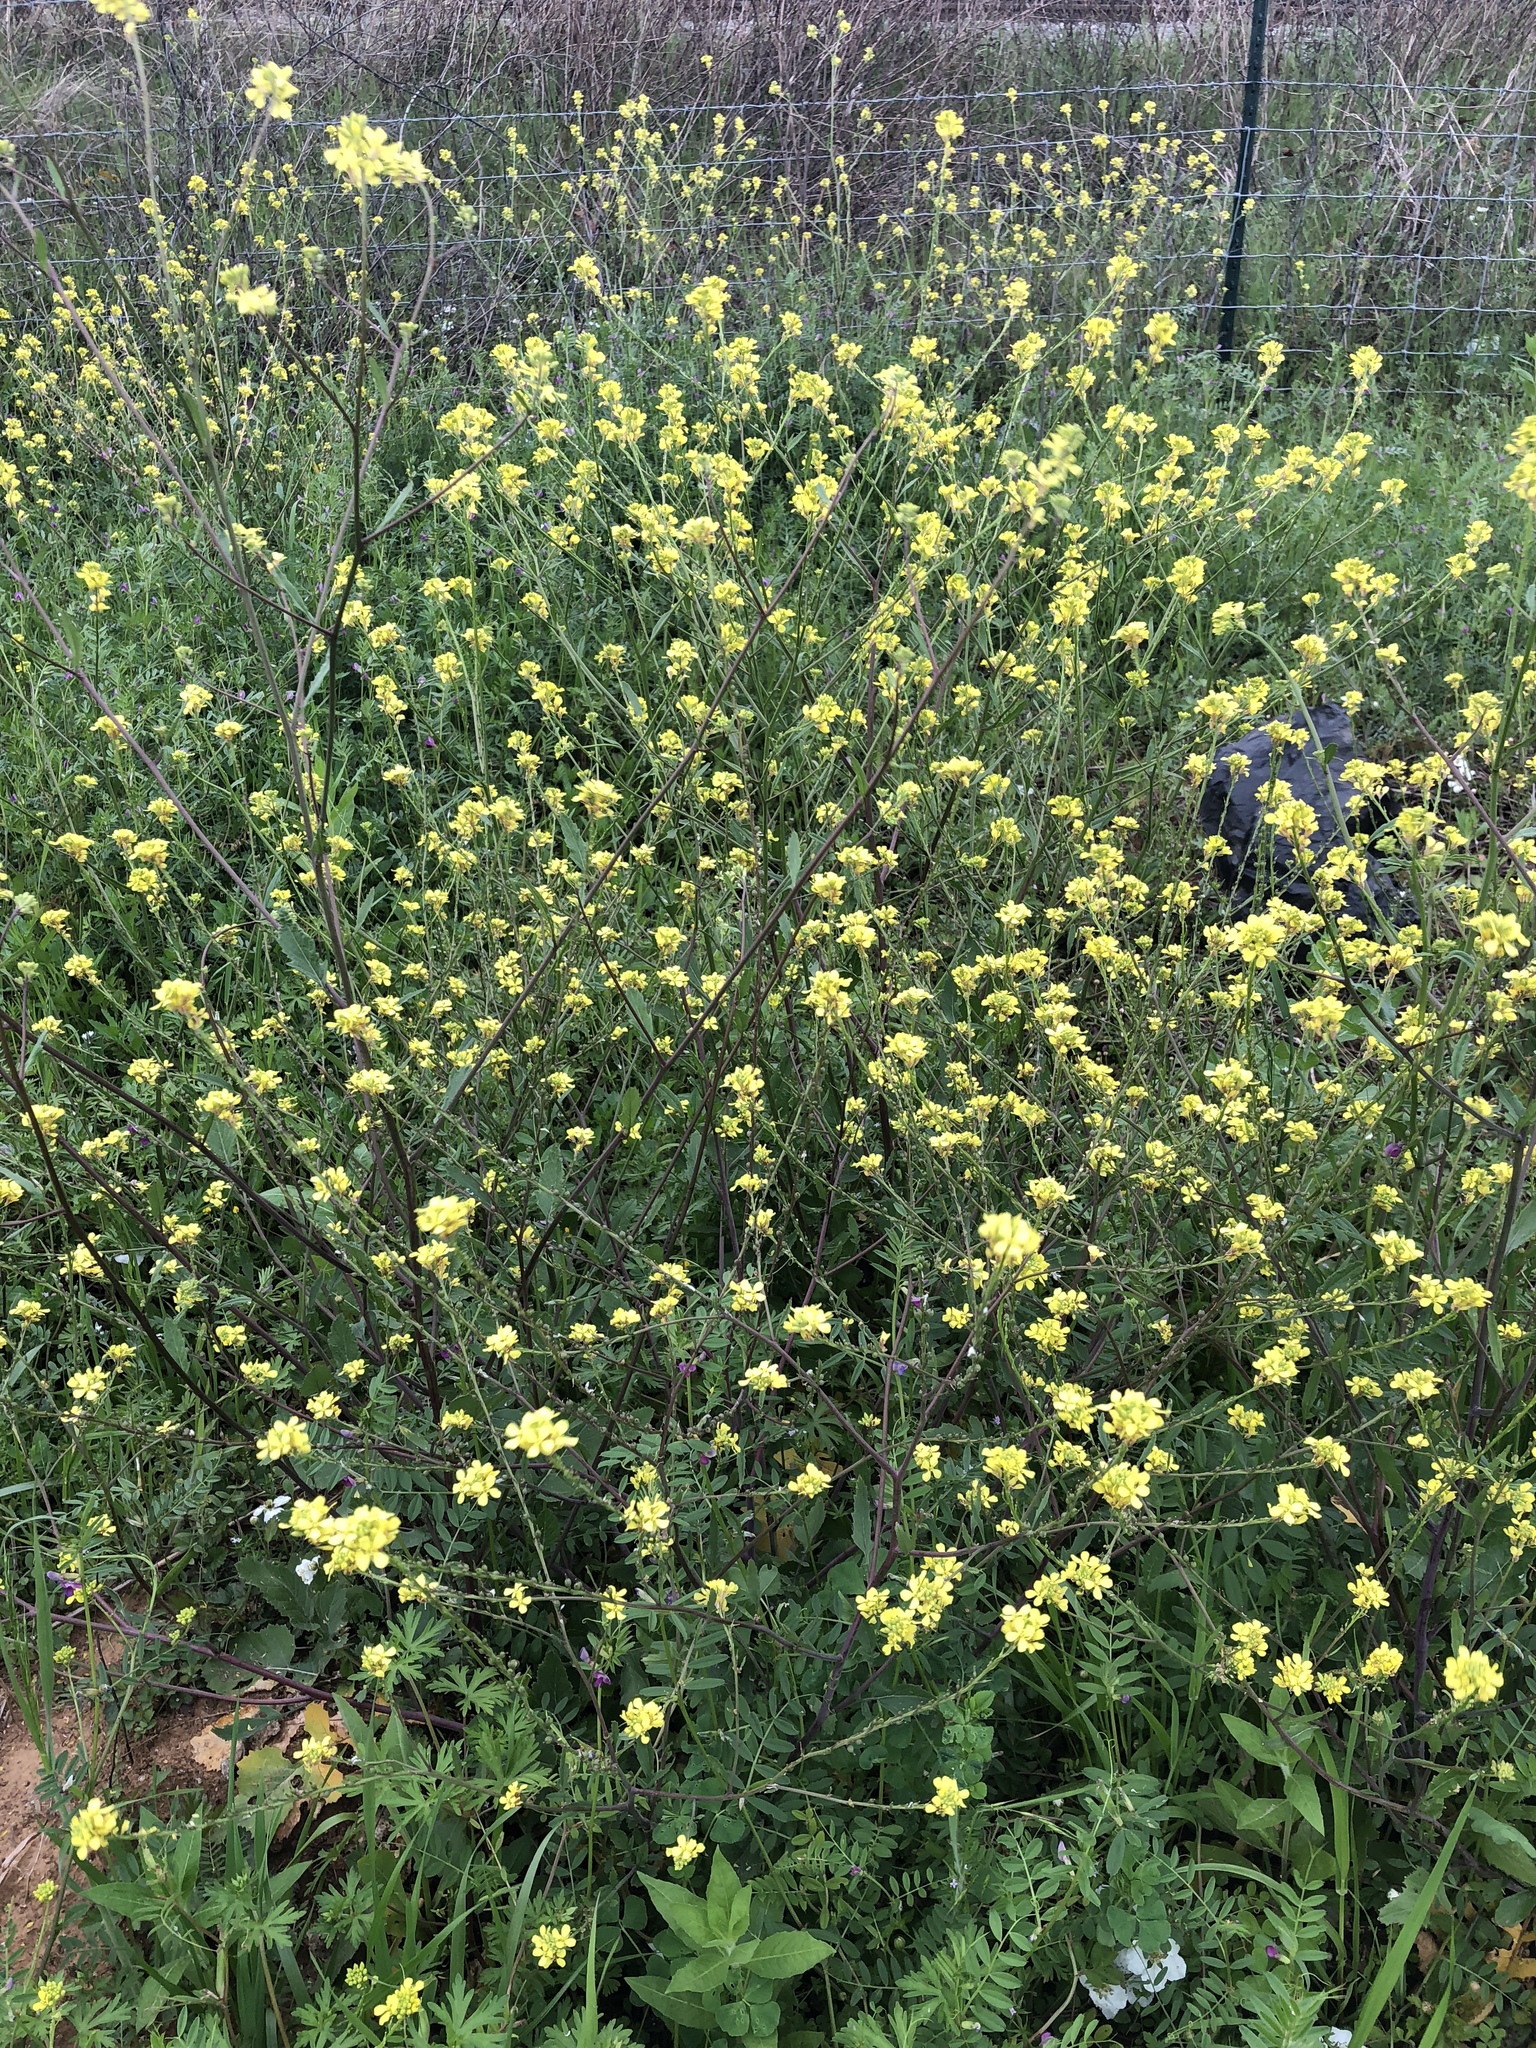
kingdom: Plantae
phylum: Tracheophyta
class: Magnoliopsida
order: Brassicales
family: Brassicaceae
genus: Rapistrum
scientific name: Rapistrum rugosum
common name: Annual bastardcabbage
